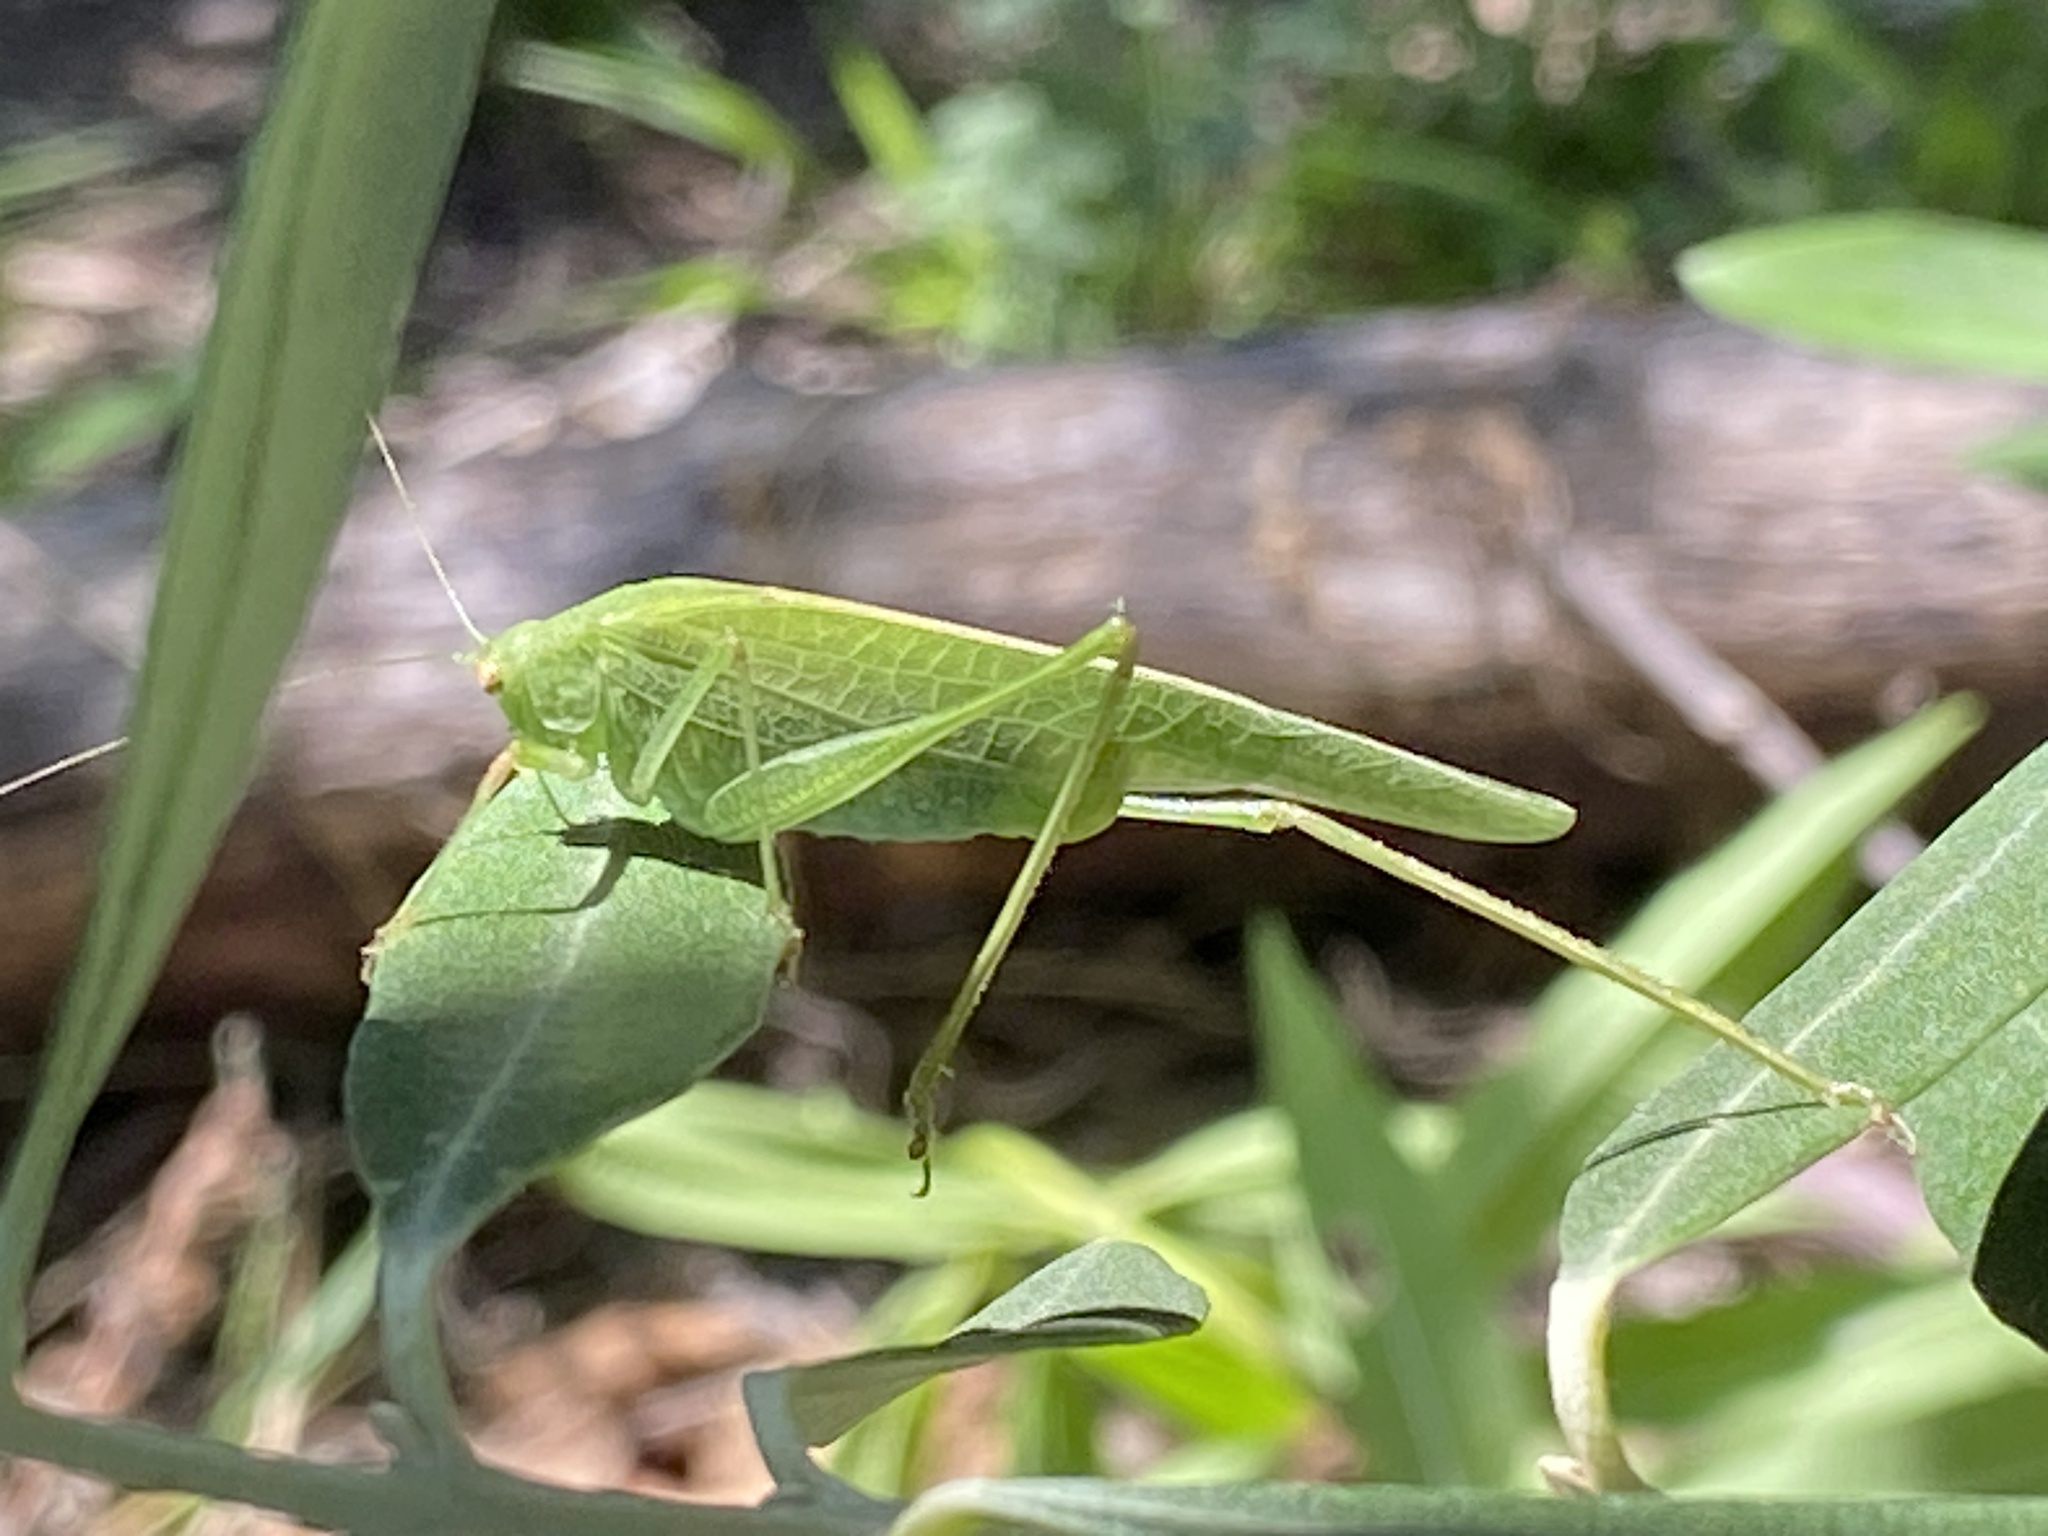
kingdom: Animalia
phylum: Arthropoda
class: Insecta
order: Orthoptera
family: Tettigoniidae
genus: Phaneroptera
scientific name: Phaneroptera nana
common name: Southern sickle bush-cricket
